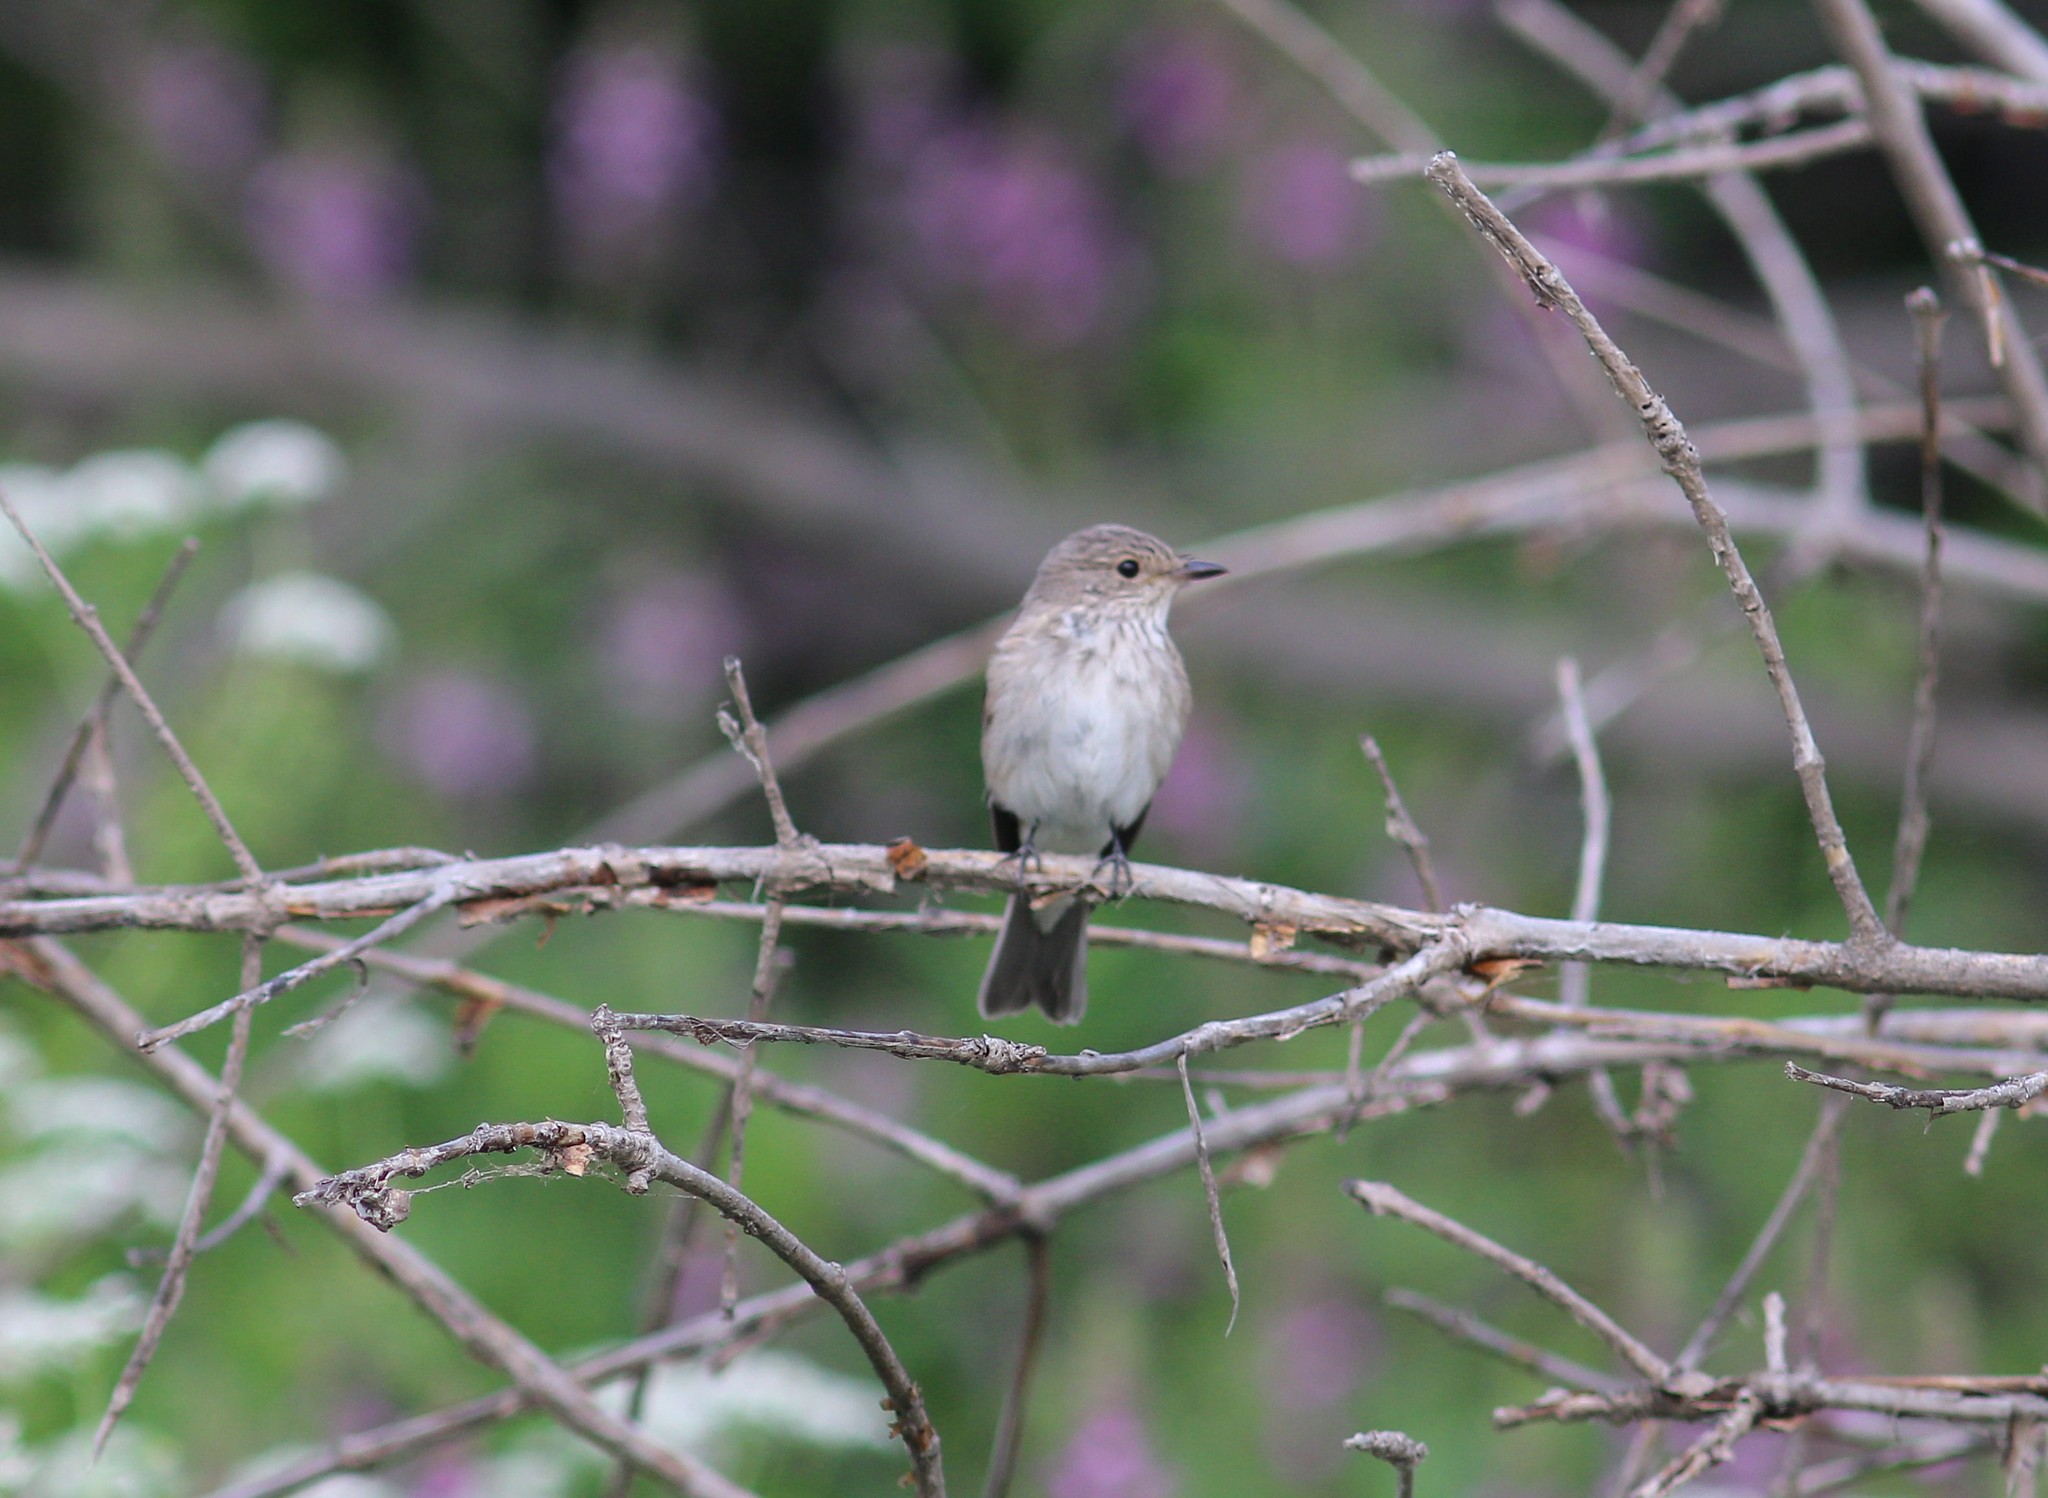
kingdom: Animalia
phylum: Chordata
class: Aves
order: Passeriformes
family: Muscicapidae
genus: Muscicapa
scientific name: Muscicapa striata
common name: Spotted flycatcher
